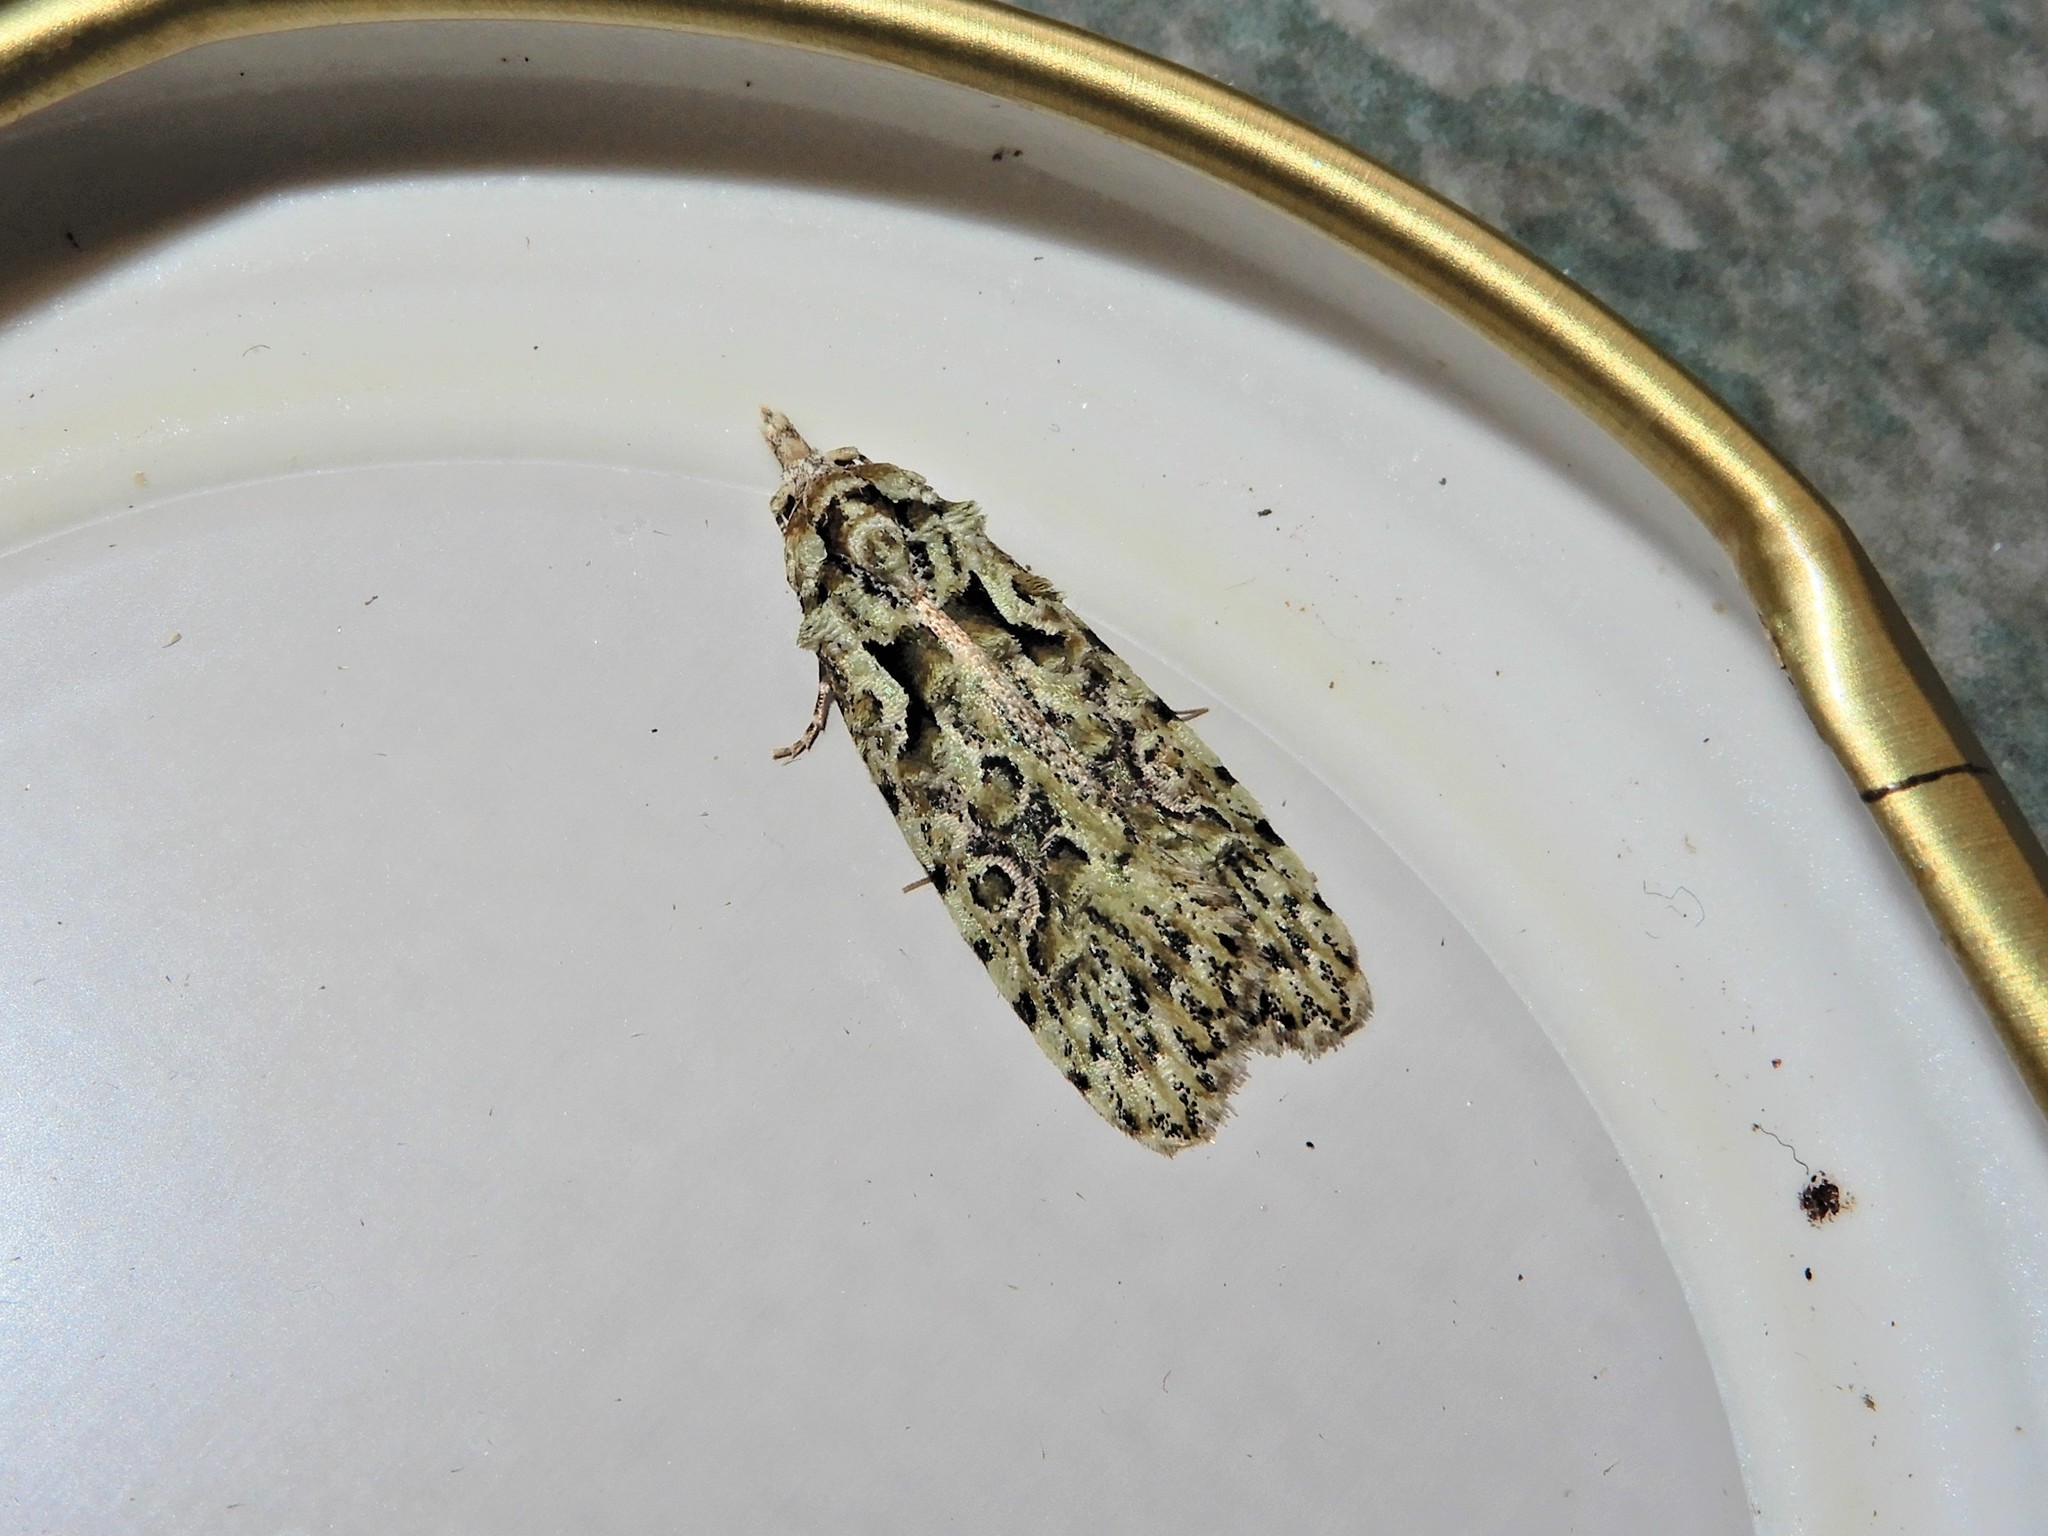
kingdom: Animalia
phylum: Arthropoda
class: Insecta
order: Lepidoptera
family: Carposinidae
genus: Carposina
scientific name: Carposina Heterocrossa eriphylla
